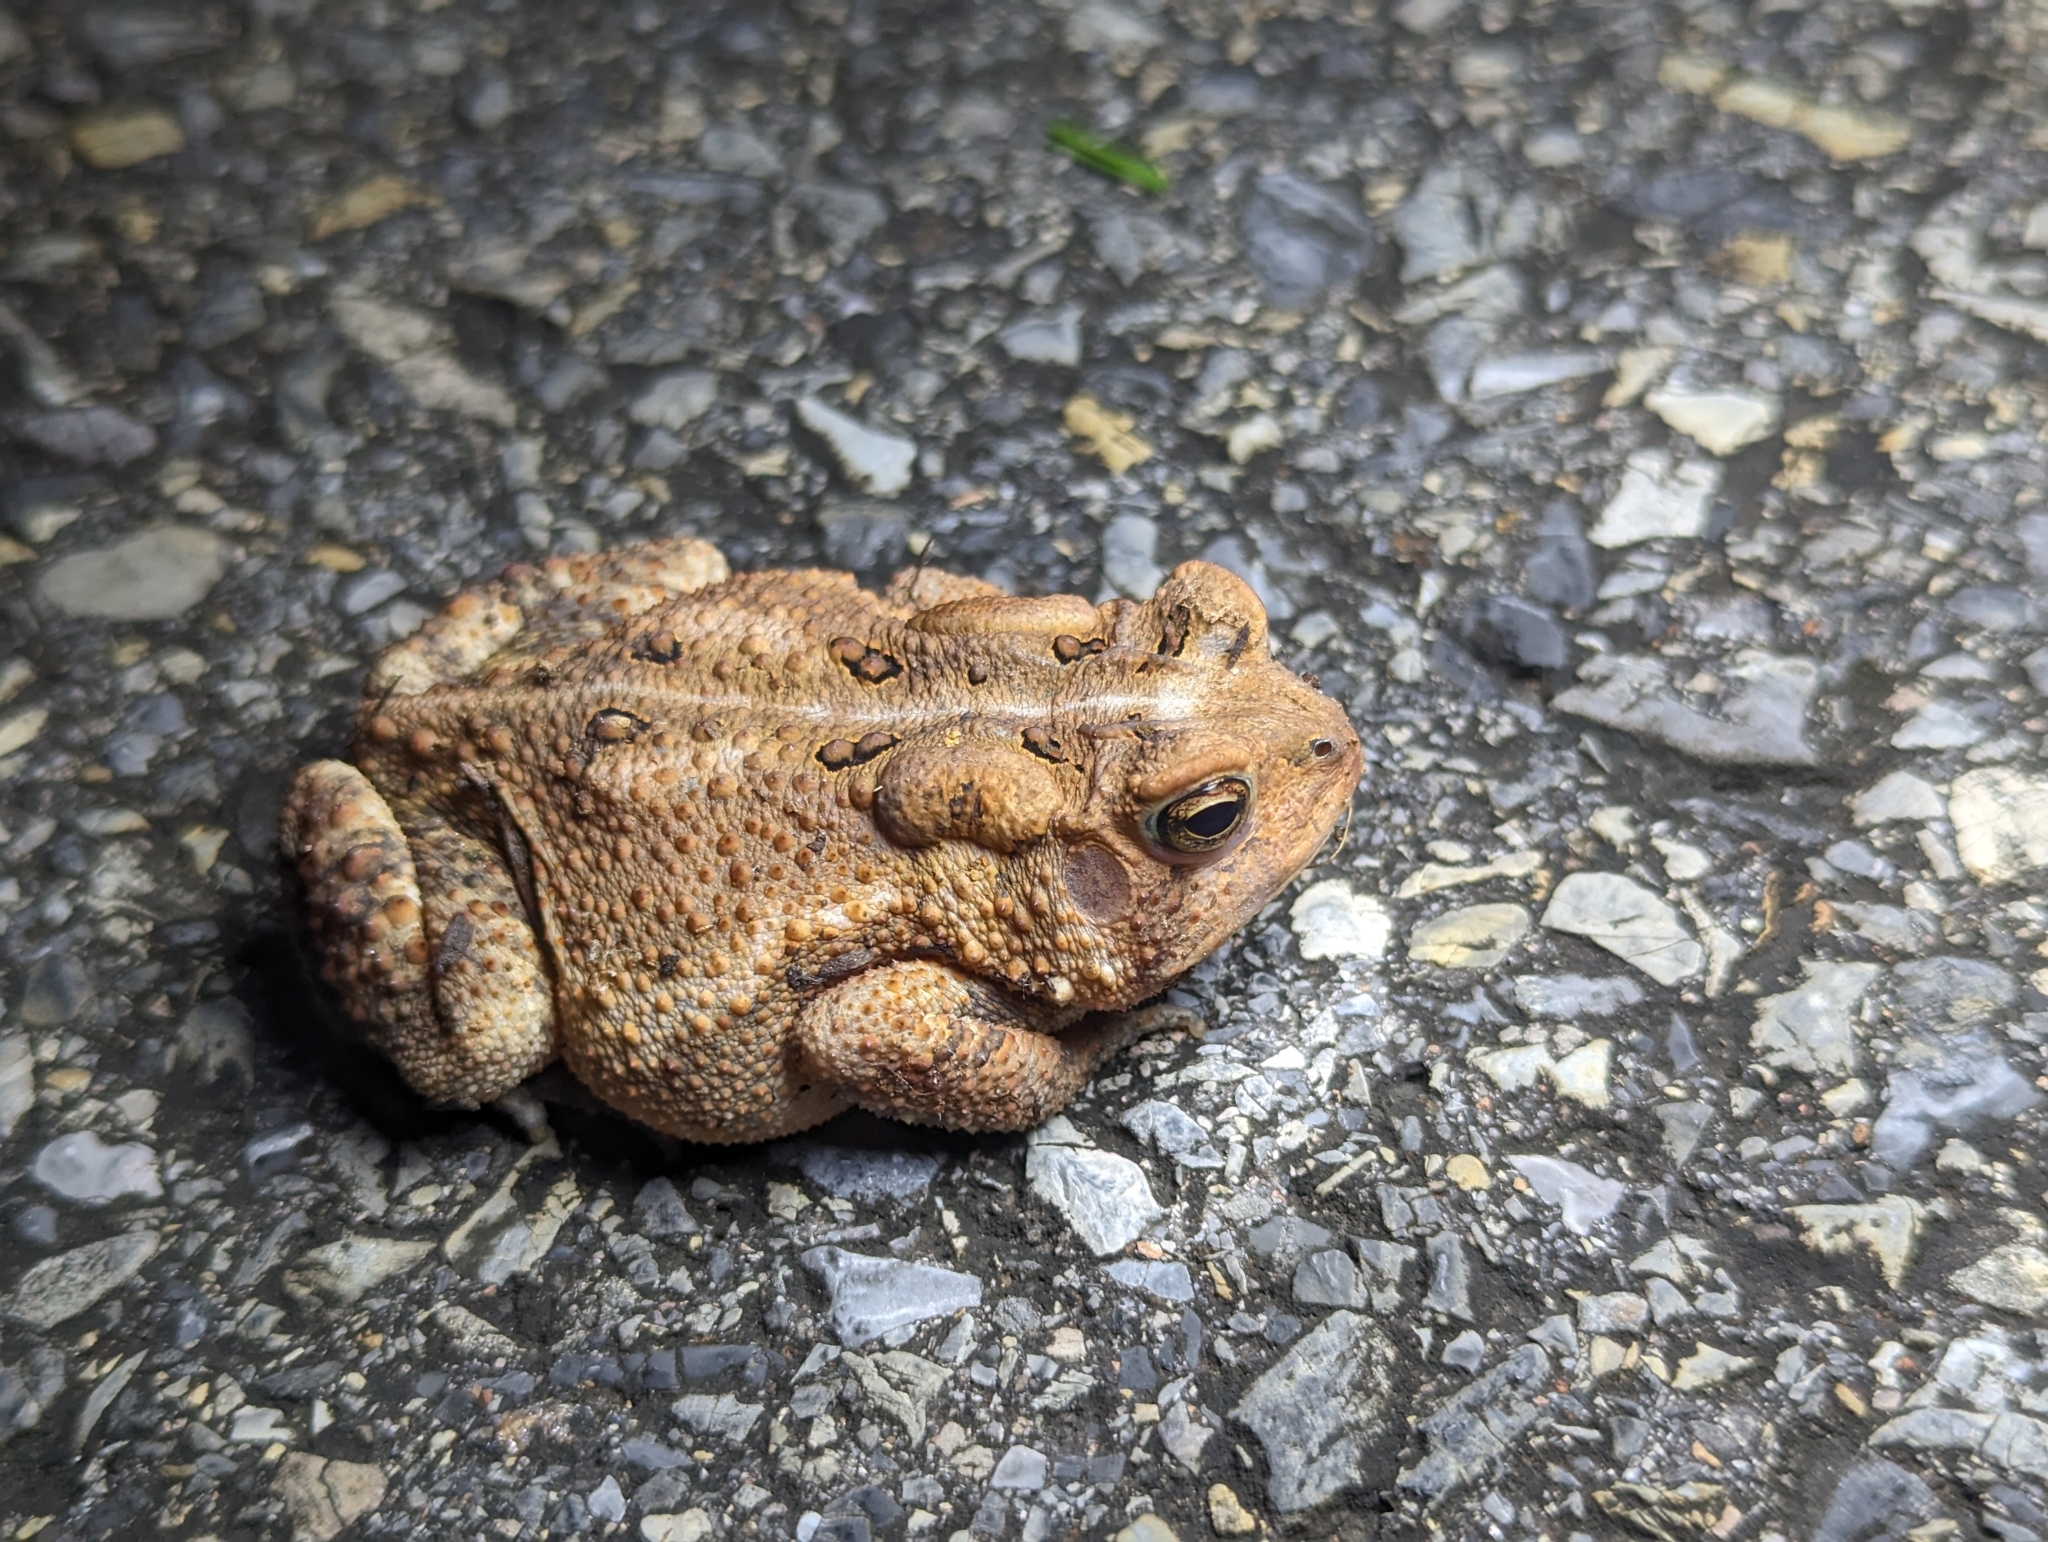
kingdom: Animalia
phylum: Chordata
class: Amphibia
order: Anura
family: Bufonidae
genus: Anaxyrus
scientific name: Anaxyrus americanus
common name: American toad
